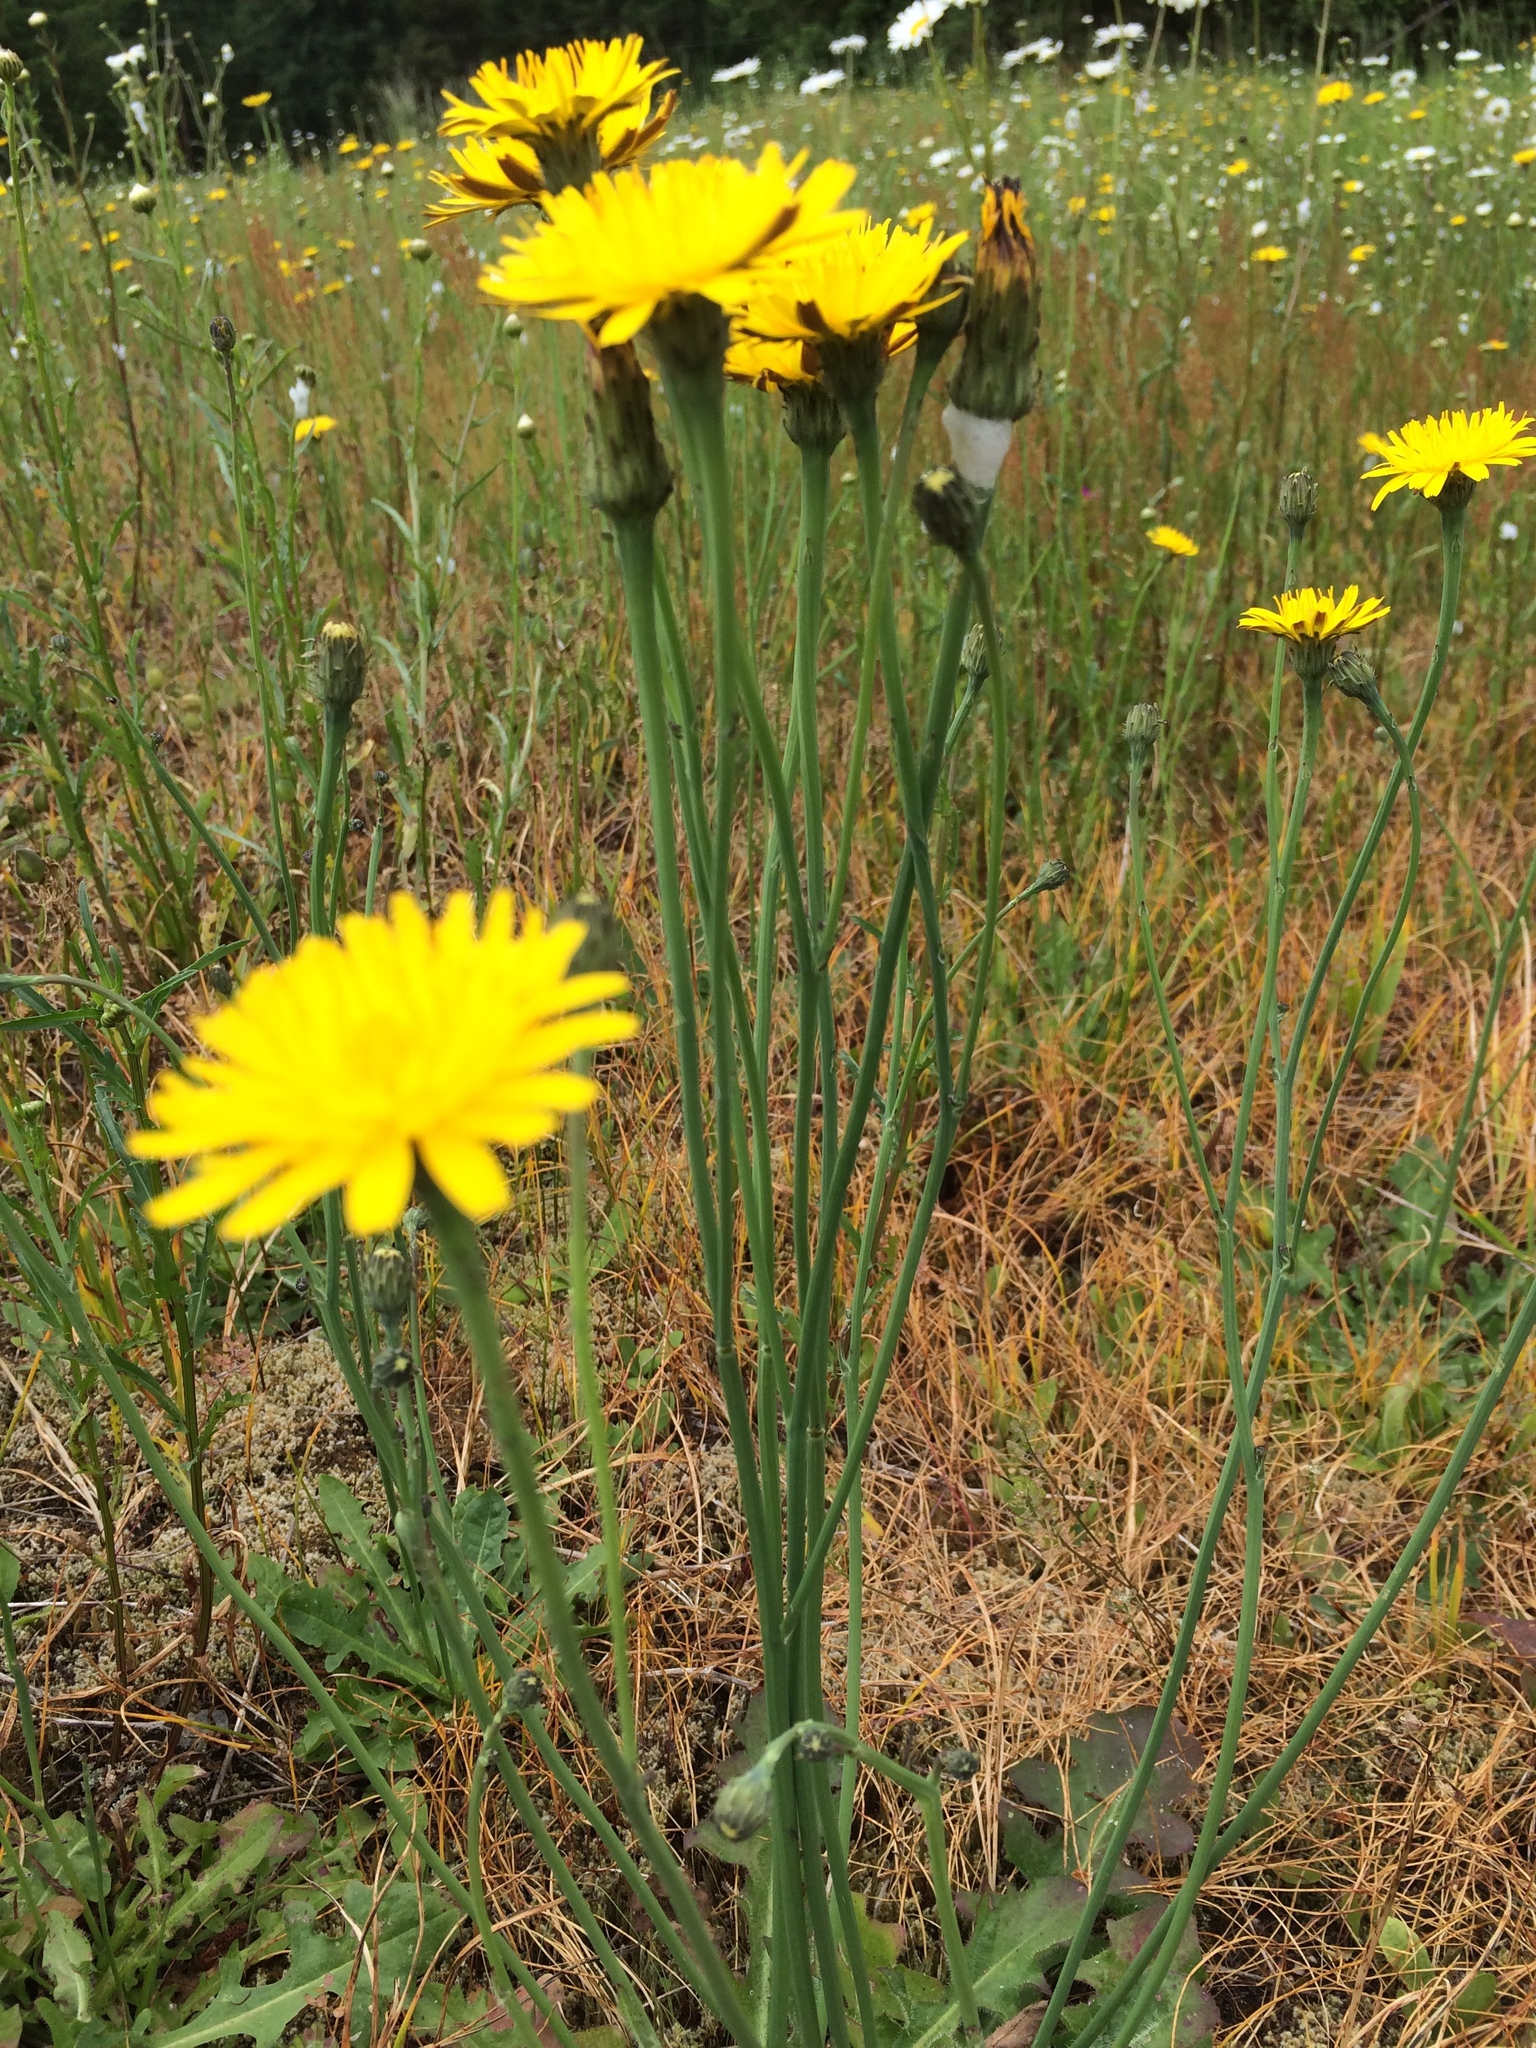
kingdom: Plantae
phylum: Tracheophyta
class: Magnoliopsida
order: Asterales
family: Asteraceae
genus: Hypochaeris
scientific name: Hypochaeris radicata
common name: Flatweed
